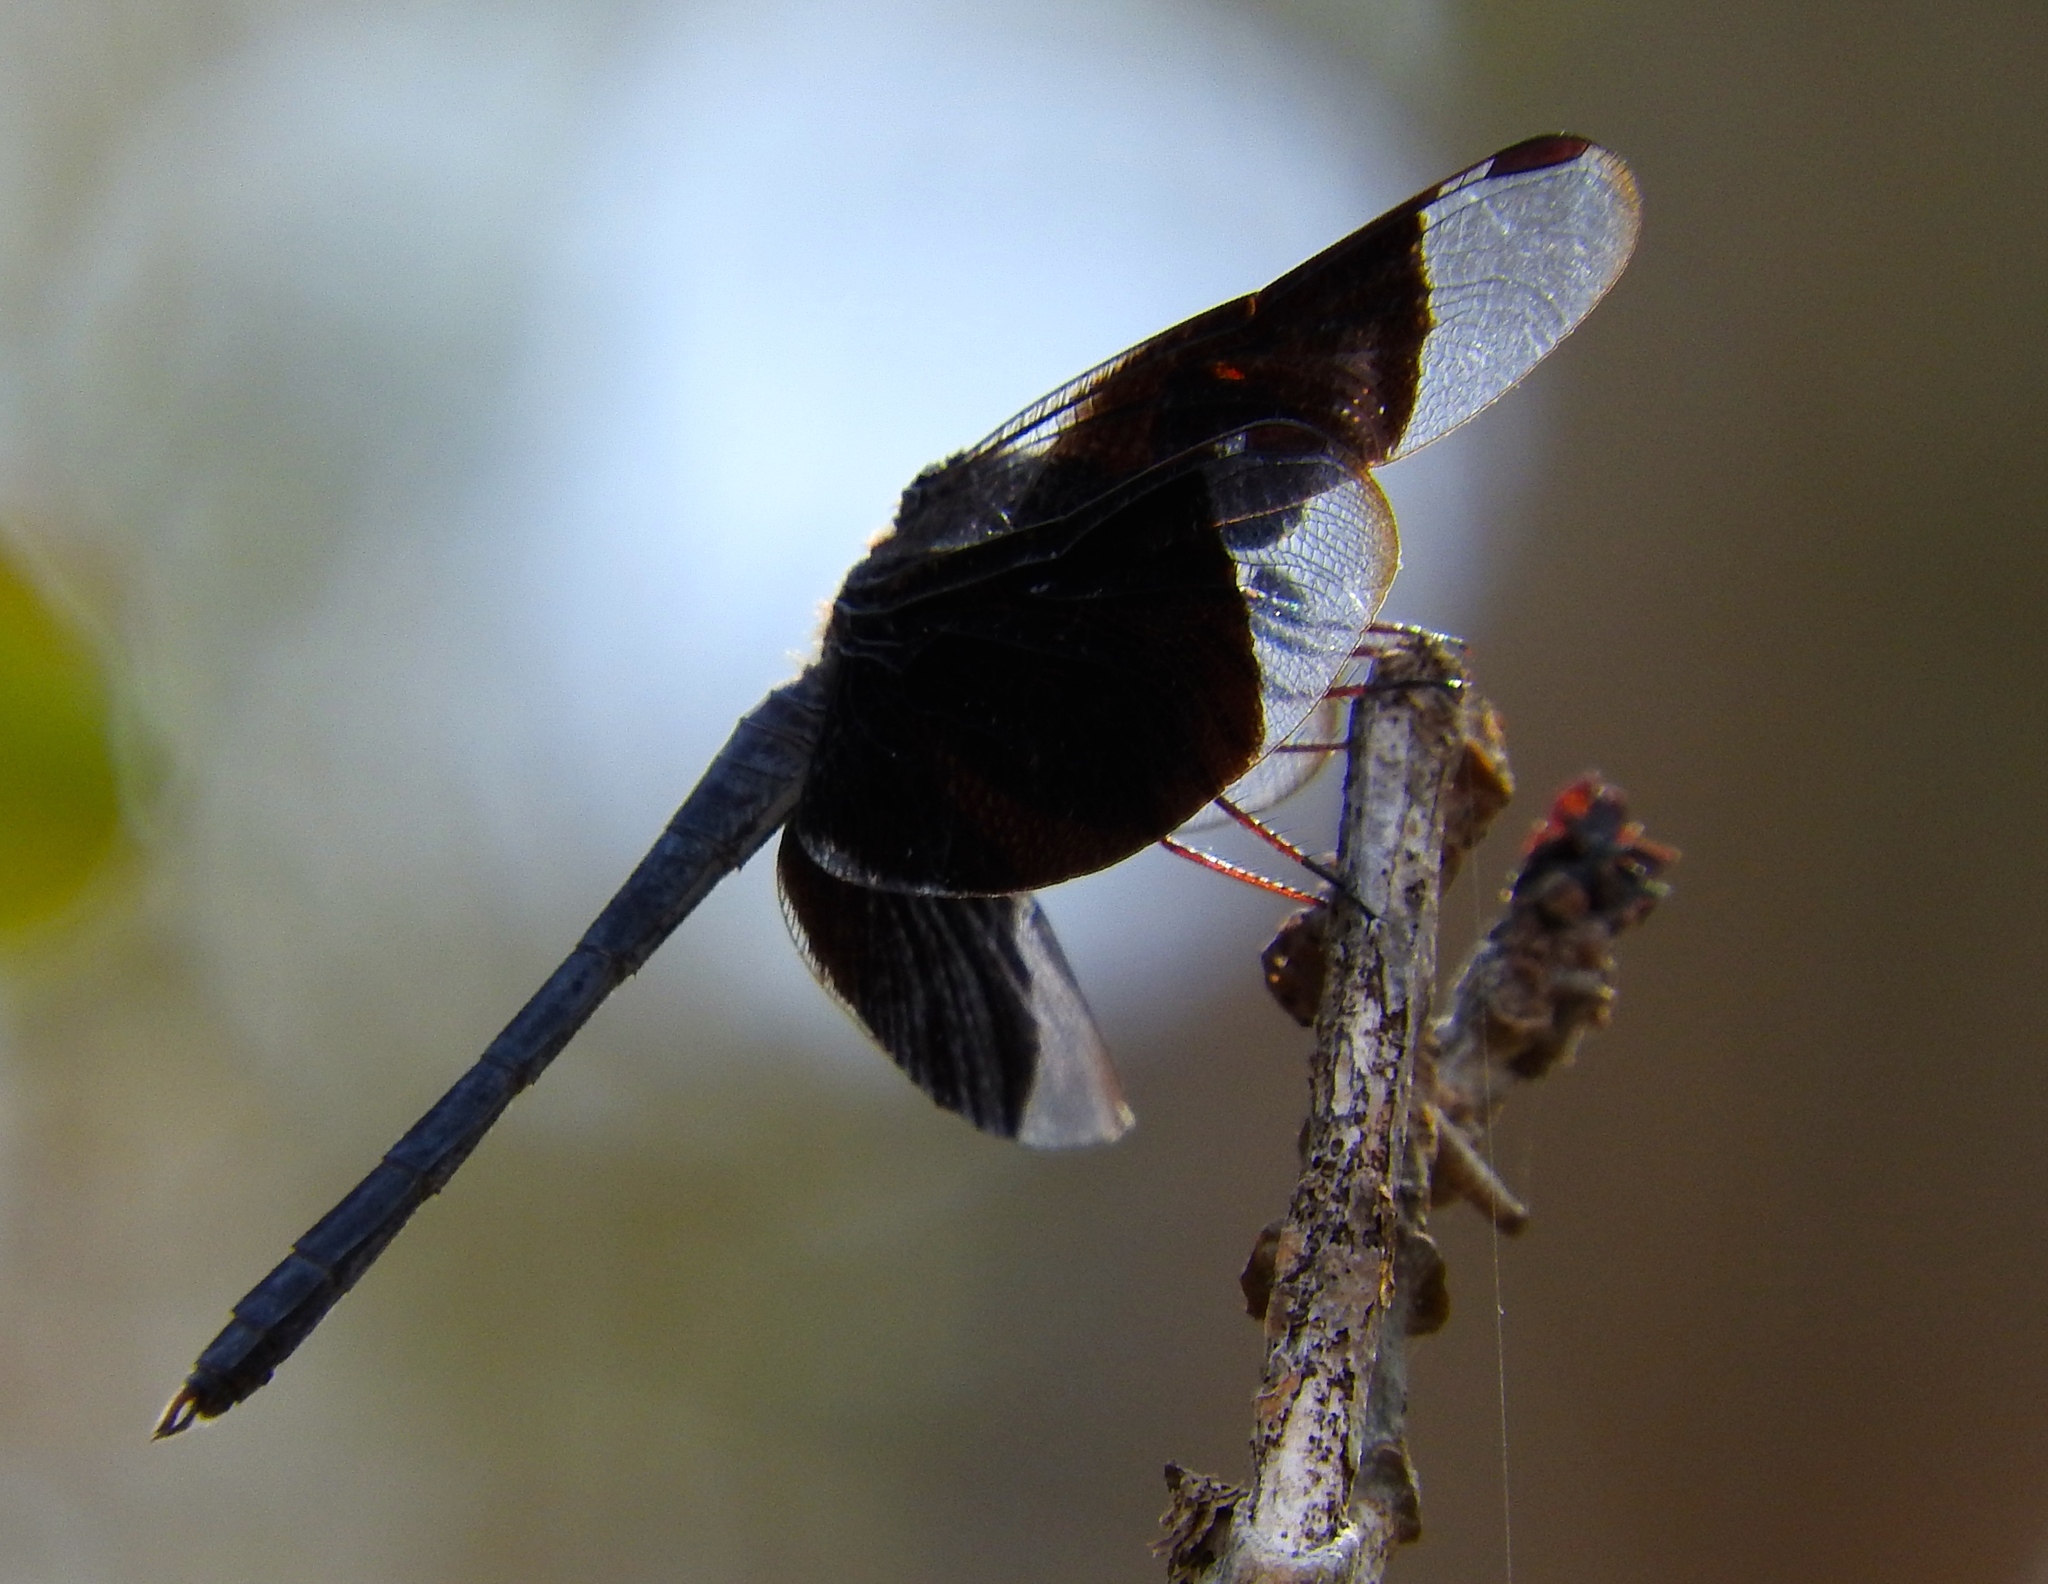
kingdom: Animalia
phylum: Arthropoda
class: Insecta
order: Odonata
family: Libellulidae
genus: Erythrodiplax
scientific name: Erythrodiplax funerea
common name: Black-winged dragonlet
